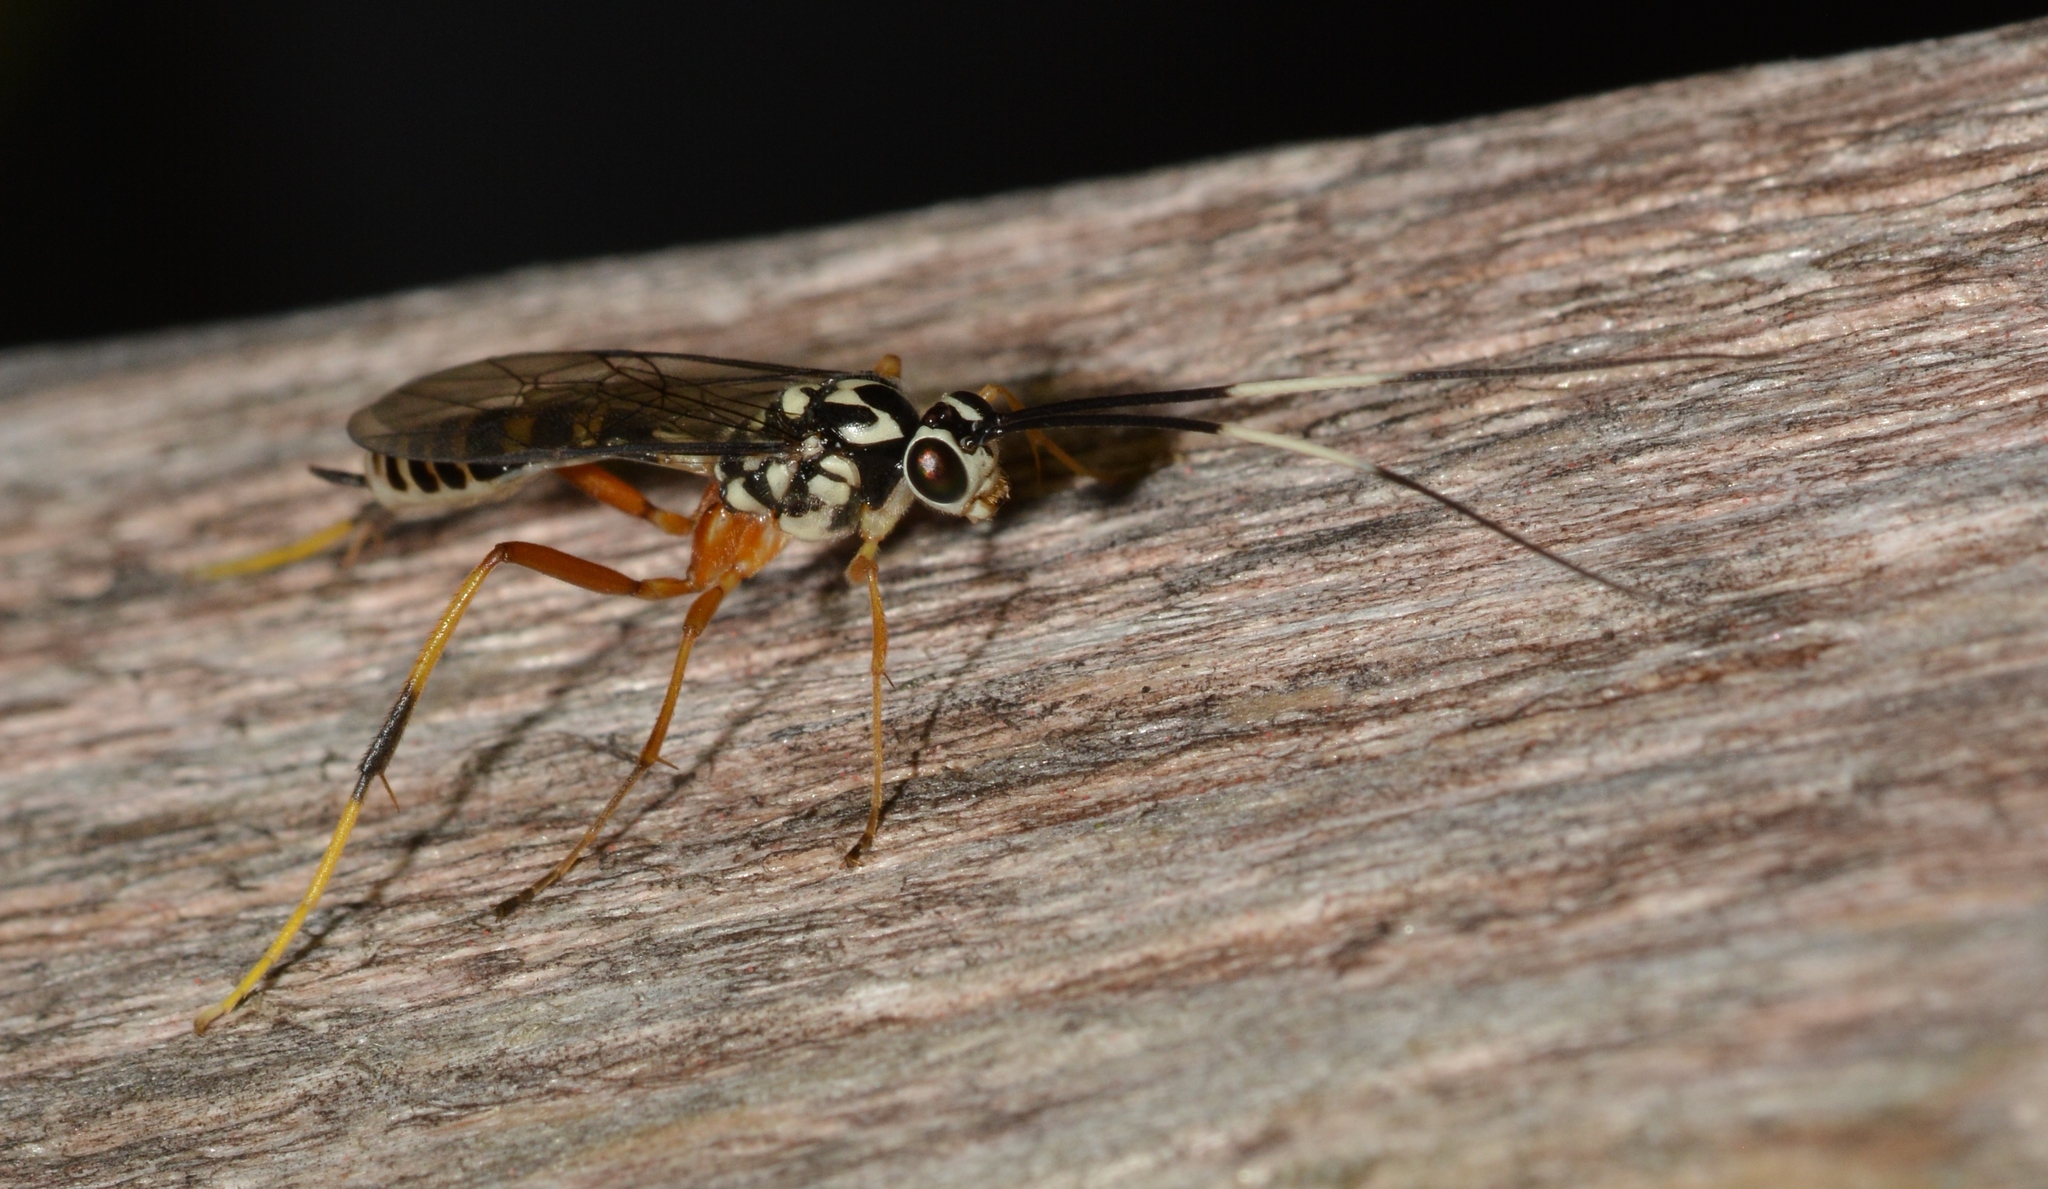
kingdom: Animalia
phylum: Arthropoda
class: Insecta
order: Hymenoptera
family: Ichneumonidae
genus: Diradops
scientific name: Diradops bethunei
